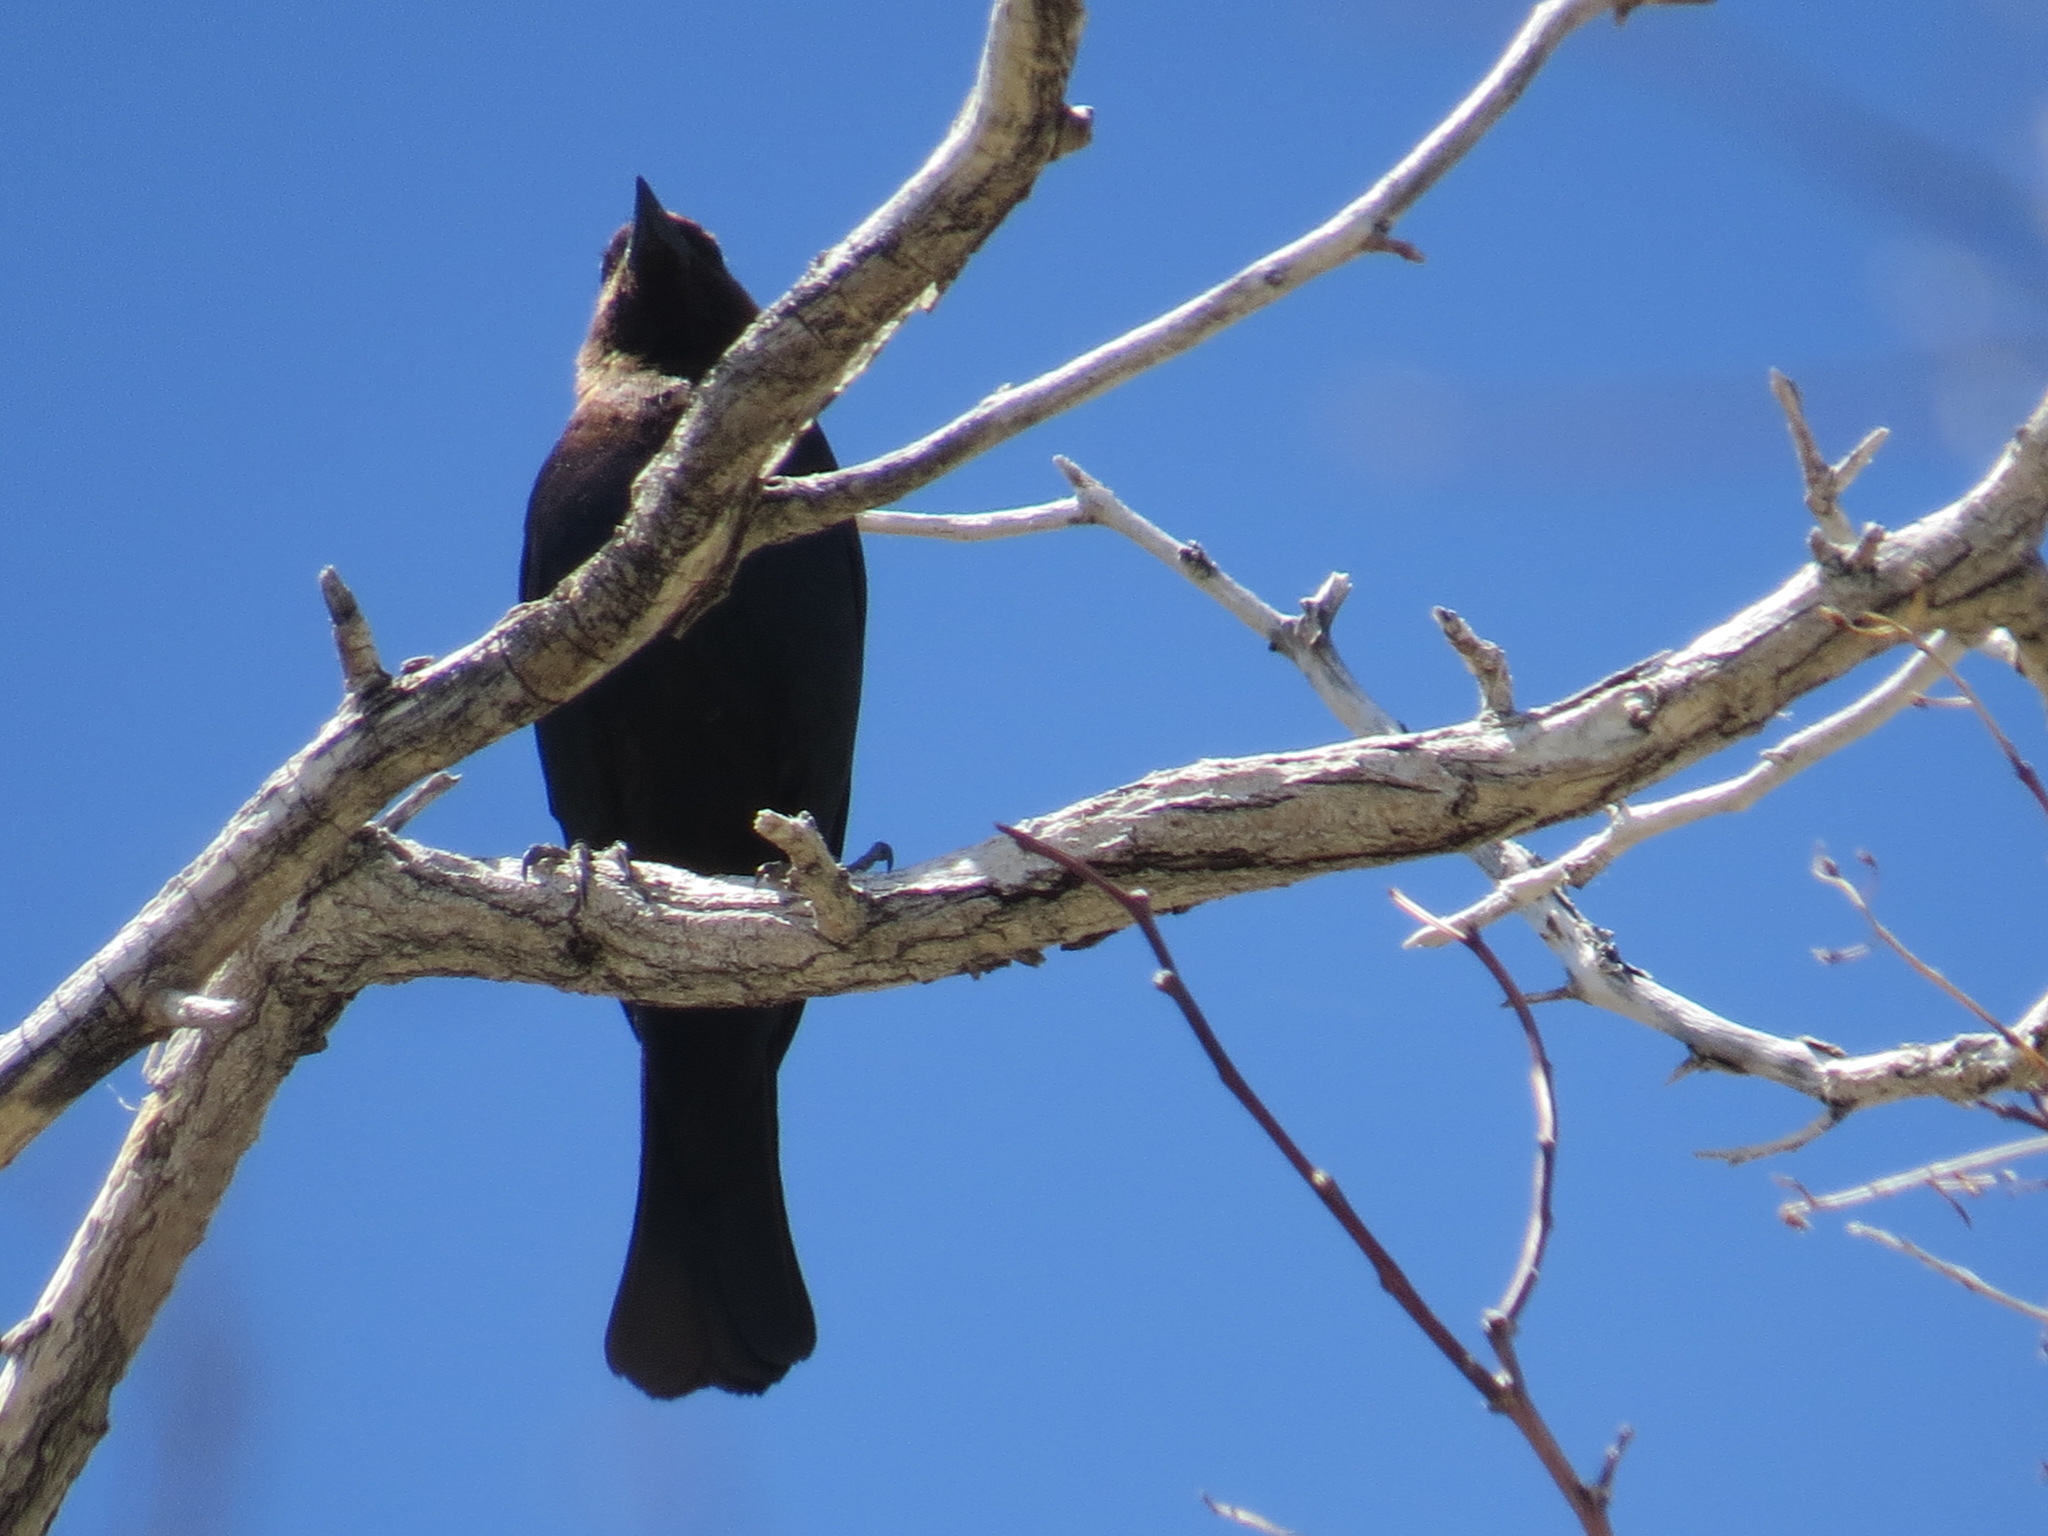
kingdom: Animalia
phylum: Chordata
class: Aves
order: Passeriformes
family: Icteridae
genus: Molothrus
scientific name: Molothrus ater
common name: Brown-headed cowbird
